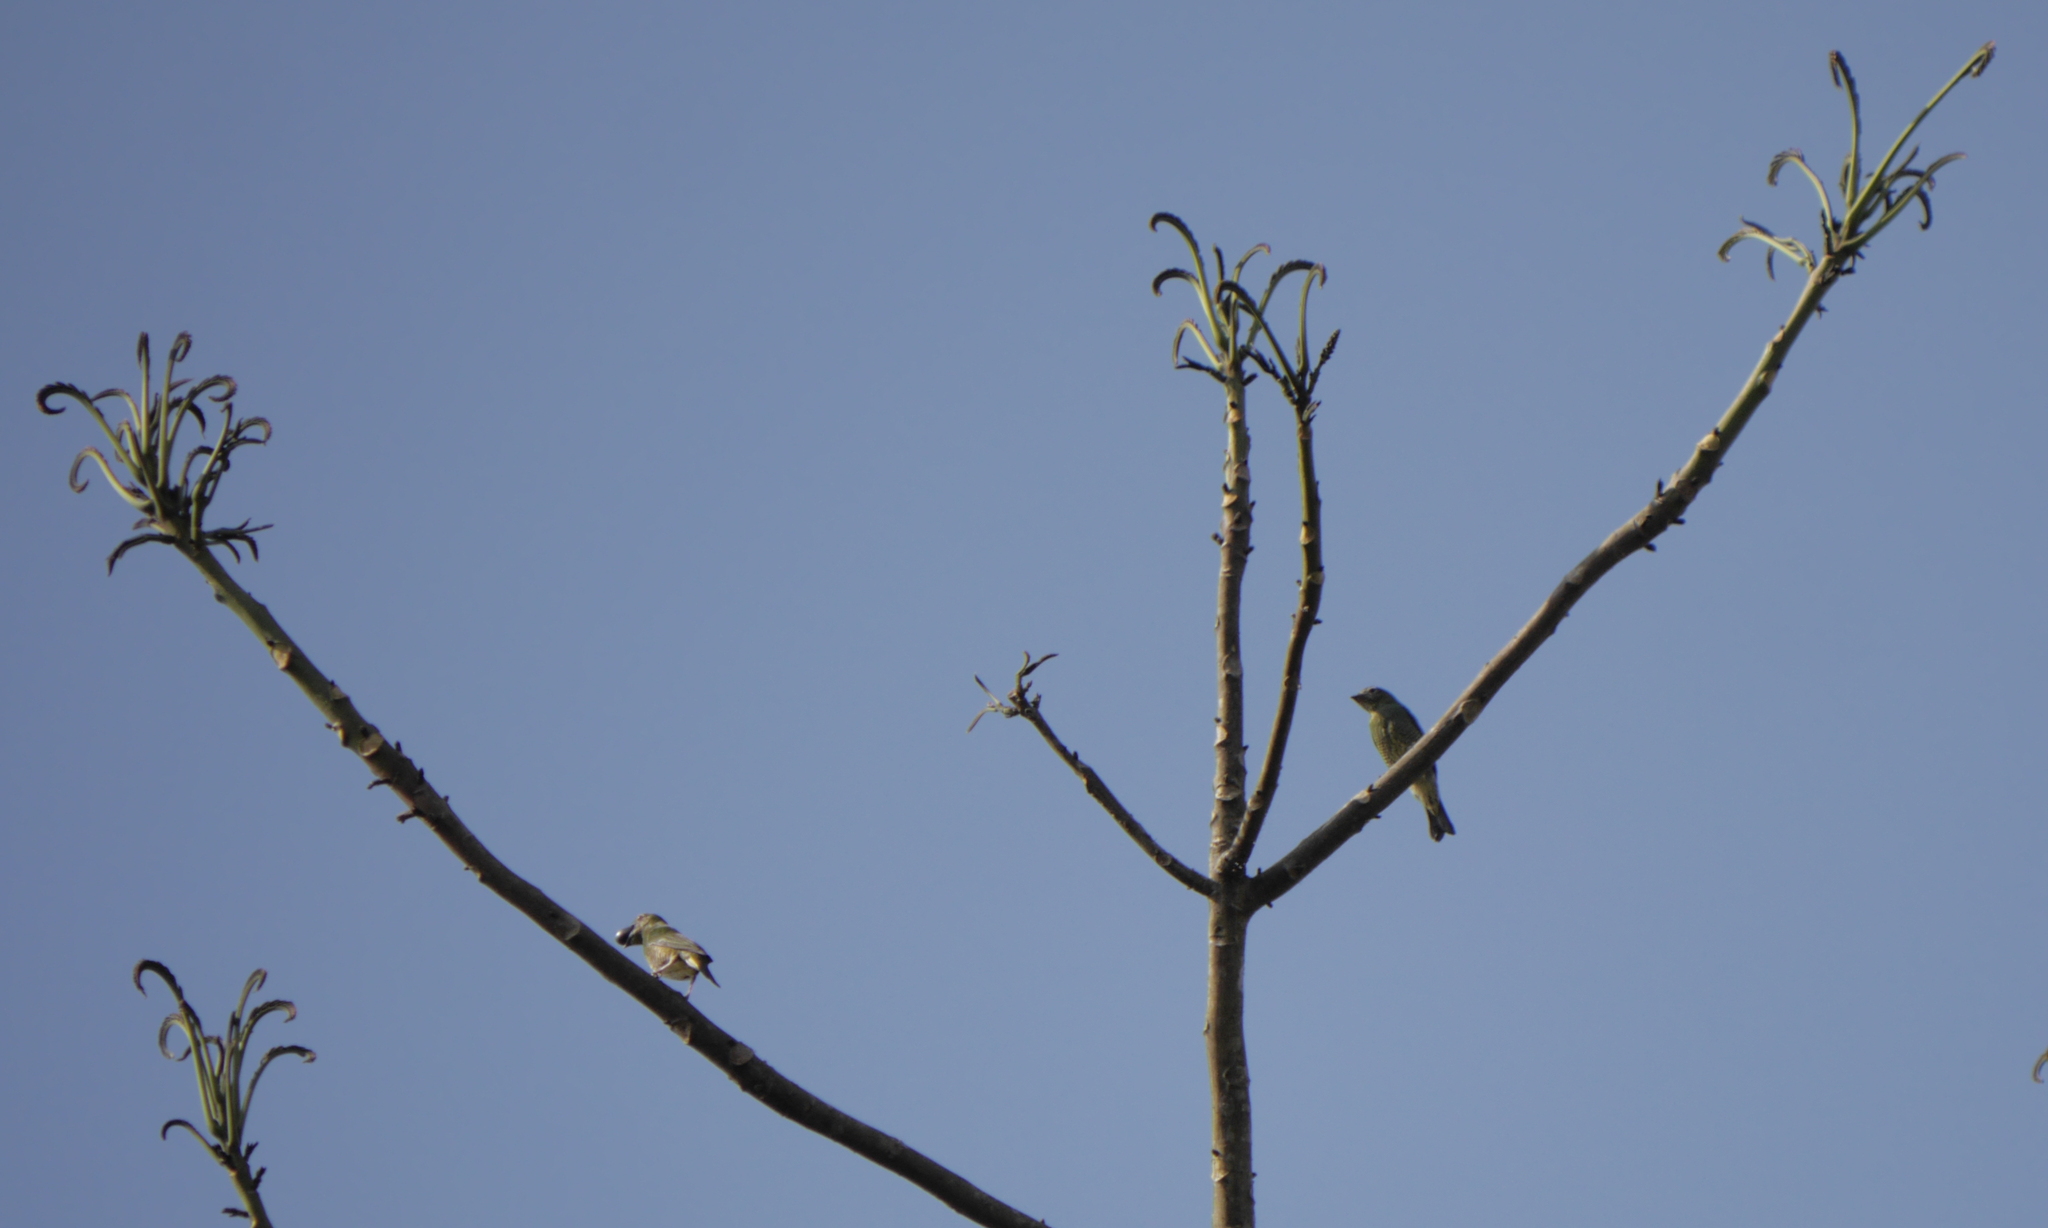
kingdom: Animalia
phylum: Chordata
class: Aves
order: Passeriformes
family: Thraupidae
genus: Tersina
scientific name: Tersina viridis
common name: Swallow tanager
